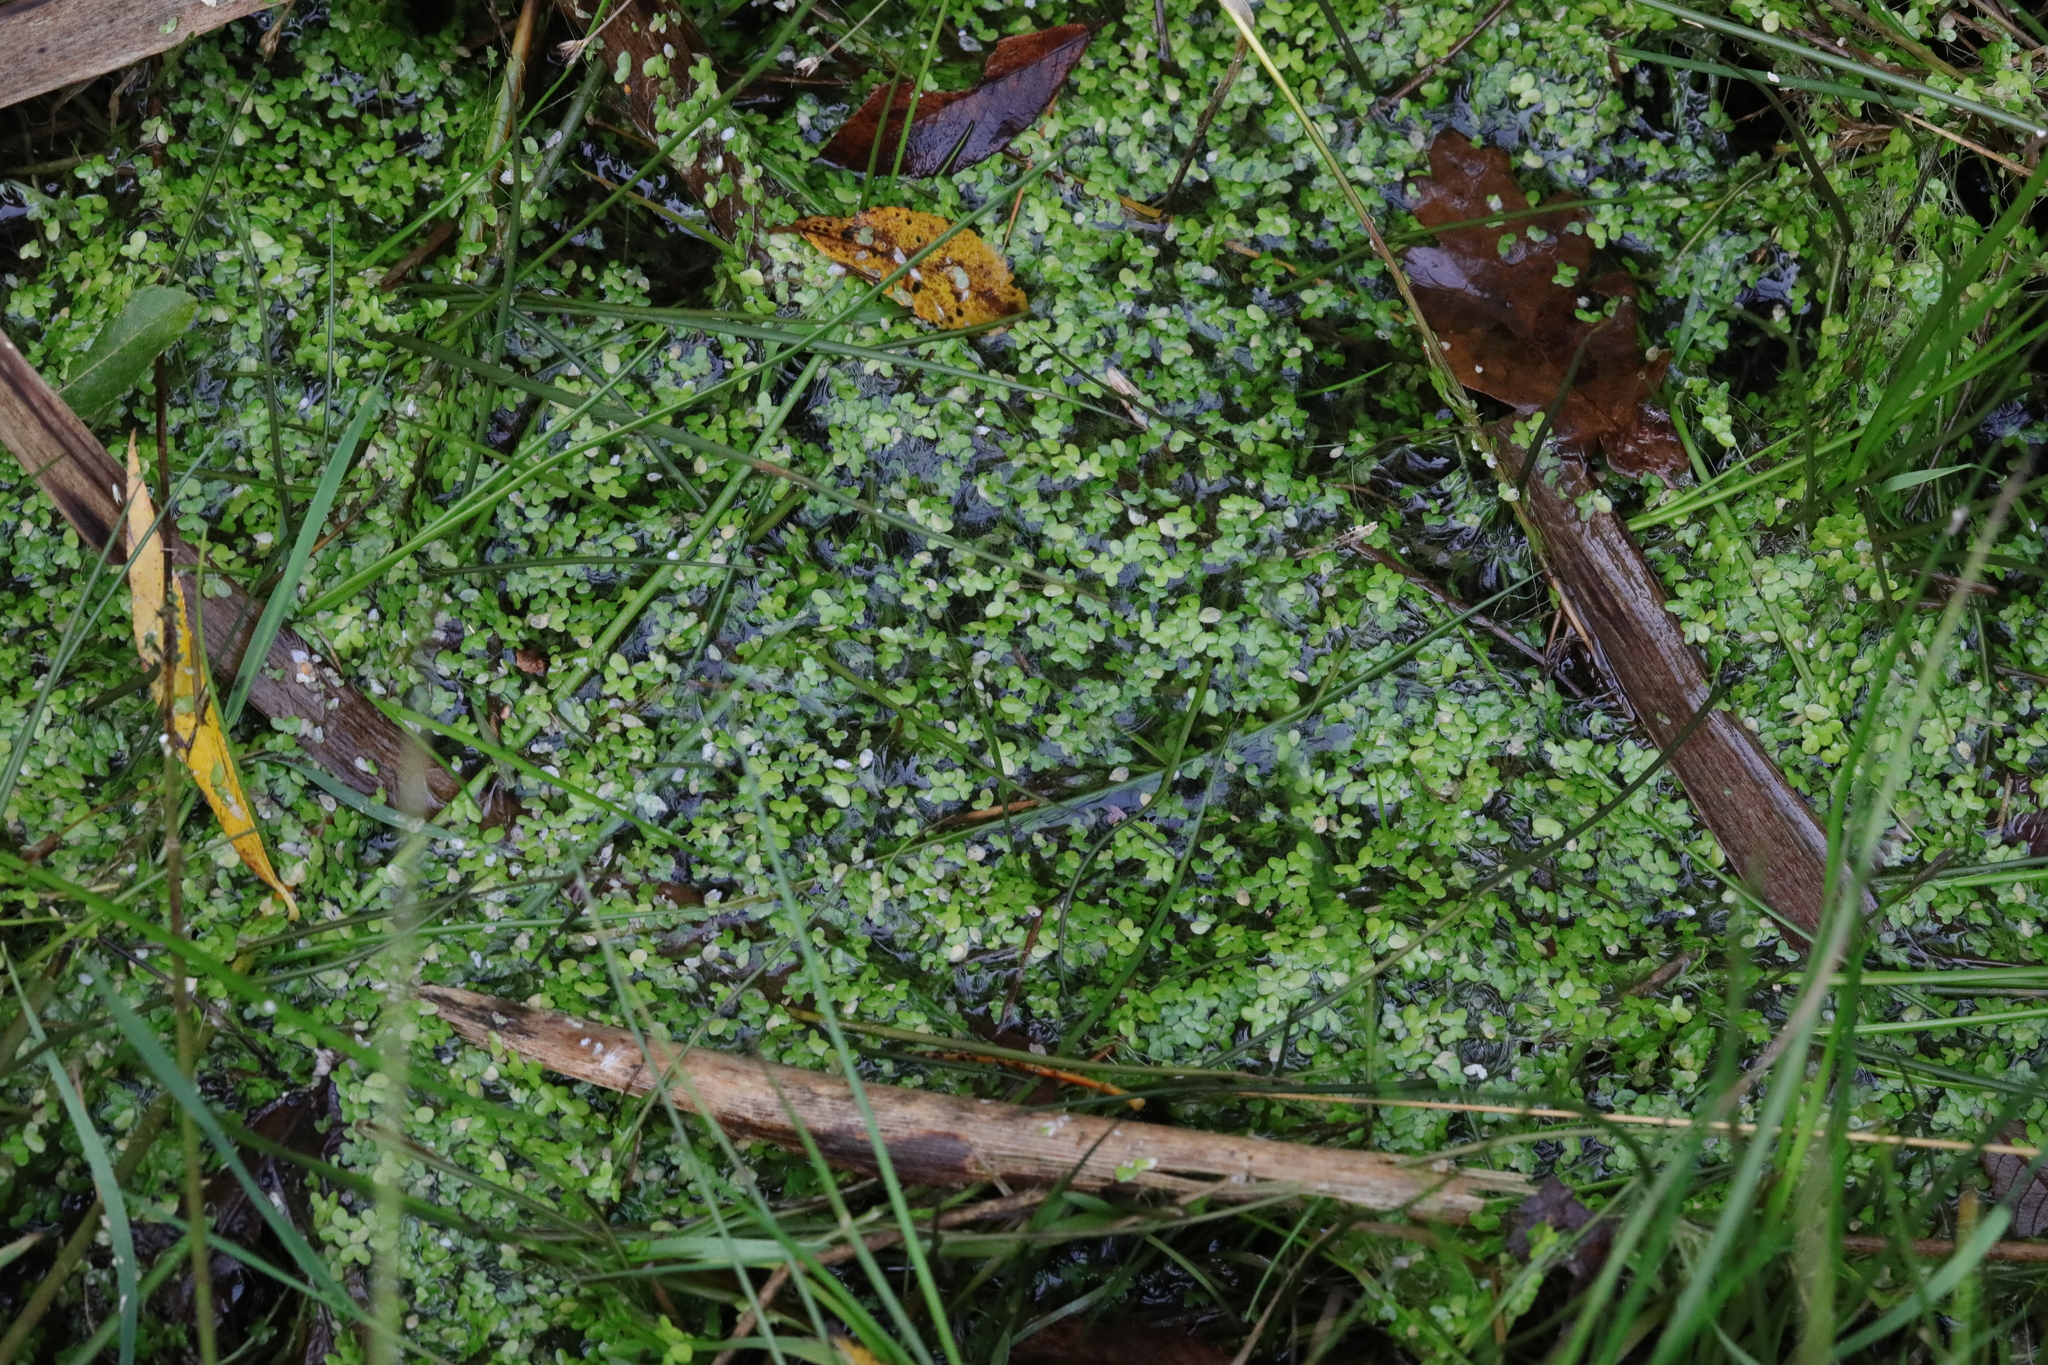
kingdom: Plantae
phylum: Tracheophyta
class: Liliopsida
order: Alismatales
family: Araceae
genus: Lemna
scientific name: Lemna minor
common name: Common duckweed
